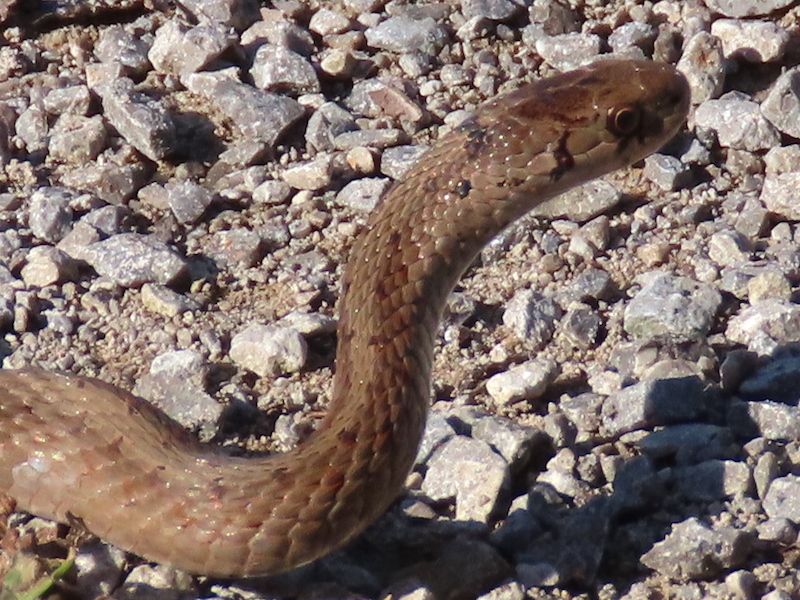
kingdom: Animalia
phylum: Chordata
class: Squamata
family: Colubridae
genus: Storeria
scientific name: Storeria dekayi
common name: (dekay’s) brown snake
